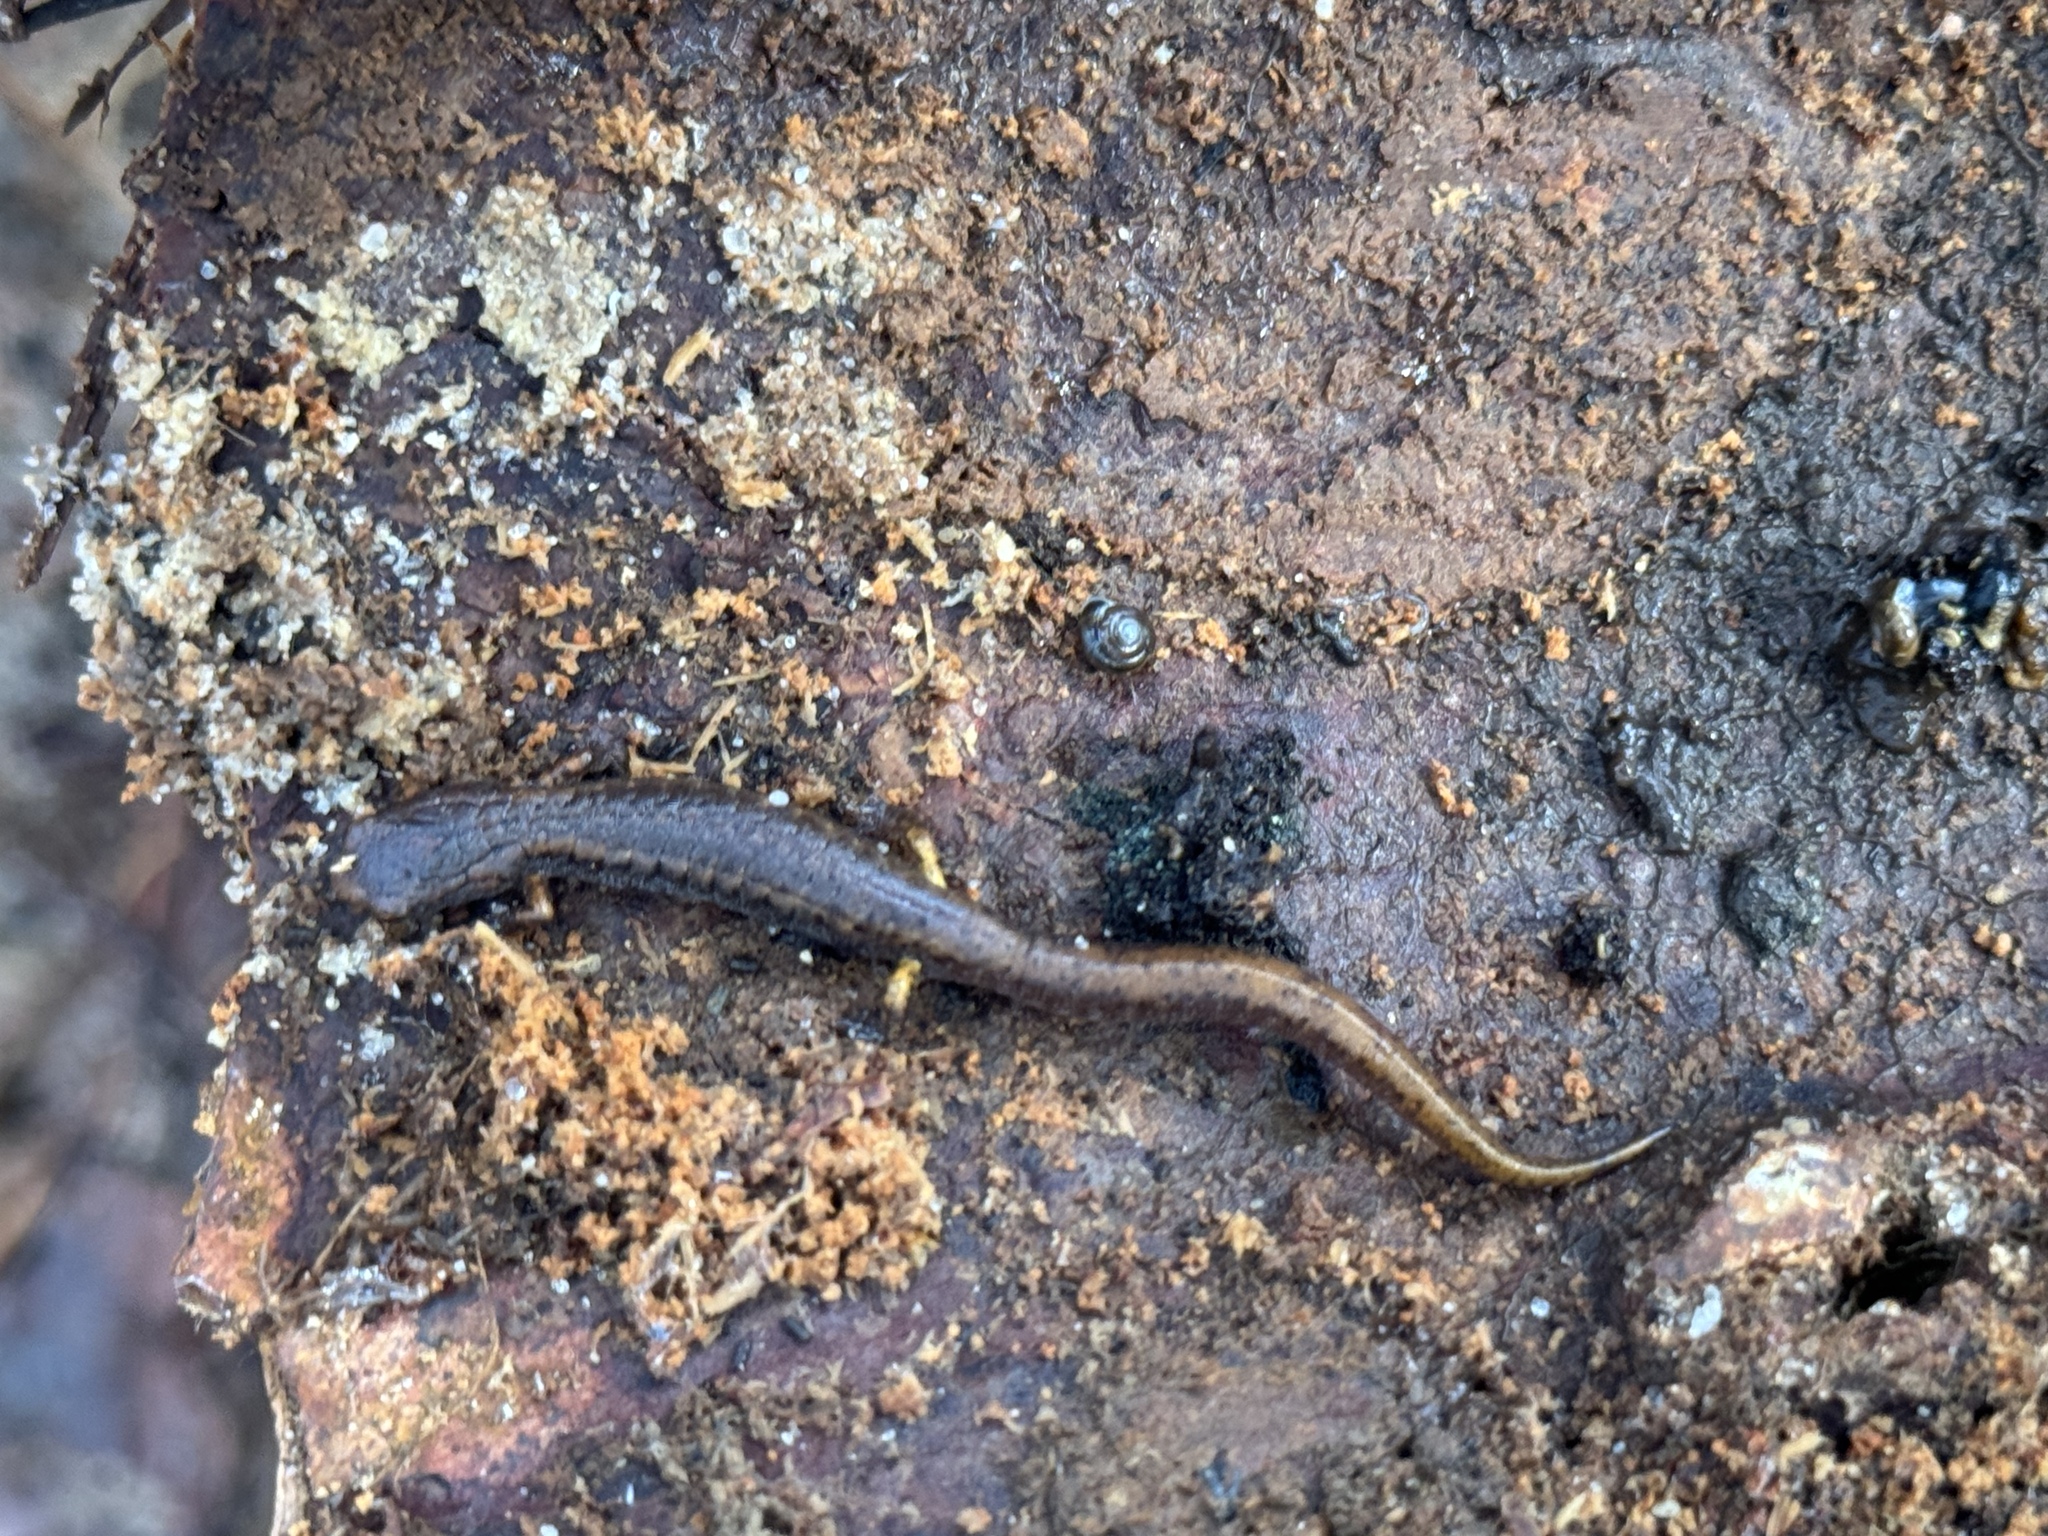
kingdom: Animalia
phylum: Chordata
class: Amphibia
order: Caudata
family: Plethodontidae
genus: Hemidactylium
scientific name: Hemidactylium scutatum
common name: Four-toed salamander
